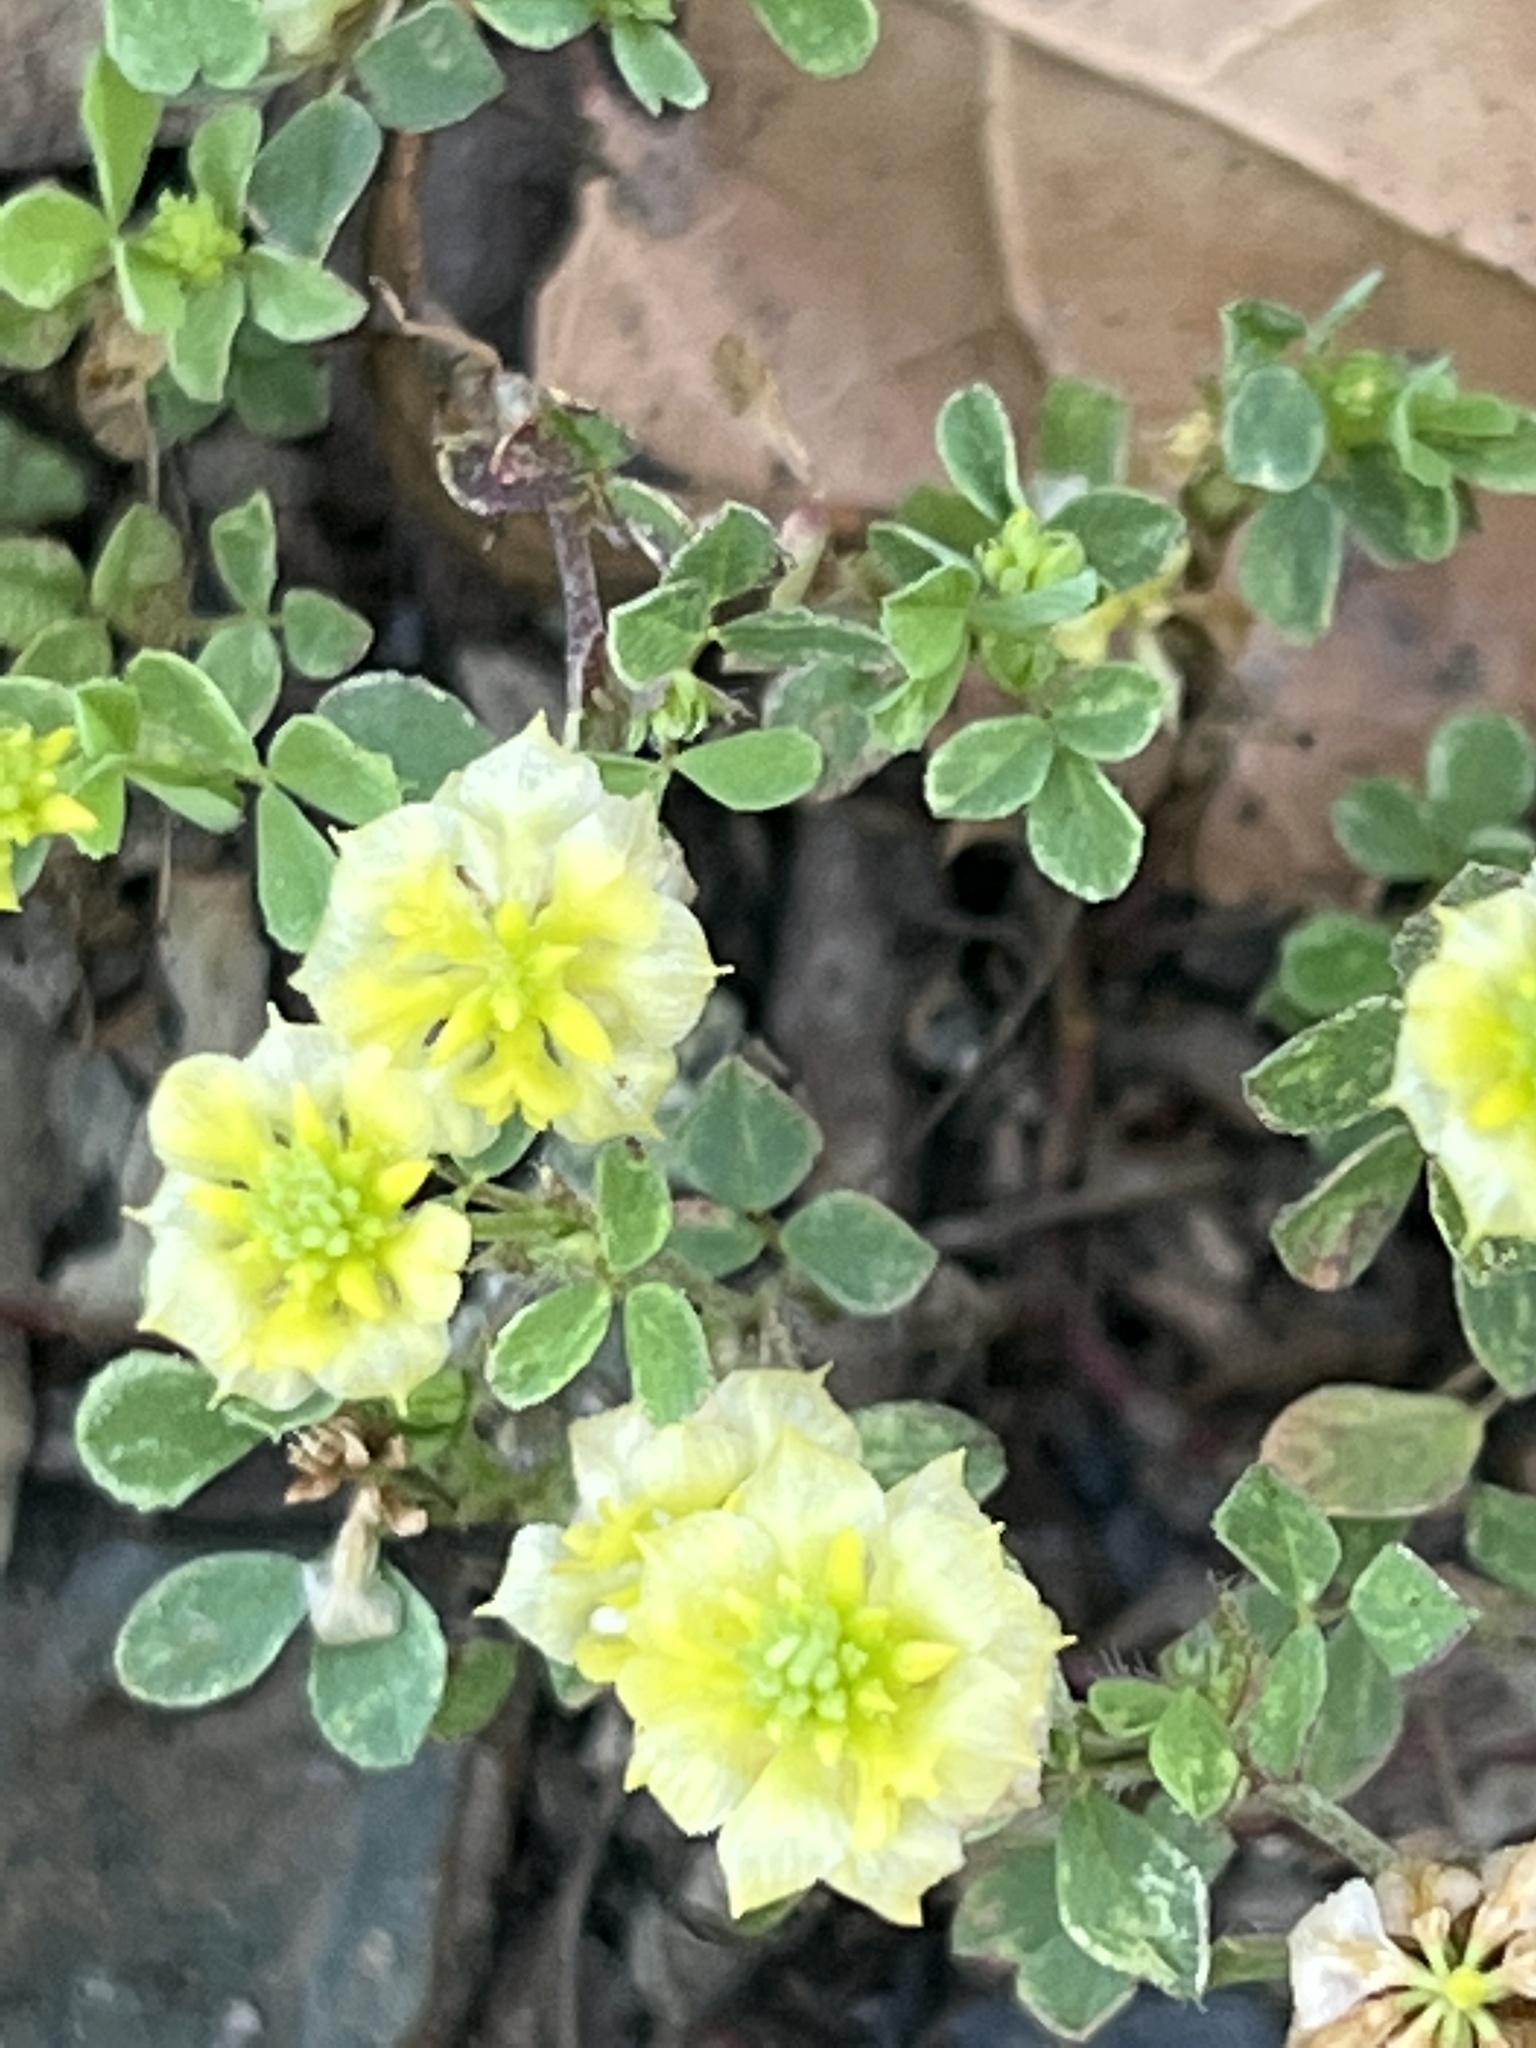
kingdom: Plantae
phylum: Tracheophyta
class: Magnoliopsida
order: Fabales
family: Fabaceae
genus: Trifolium
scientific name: Trifolium campestre
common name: Field clover
